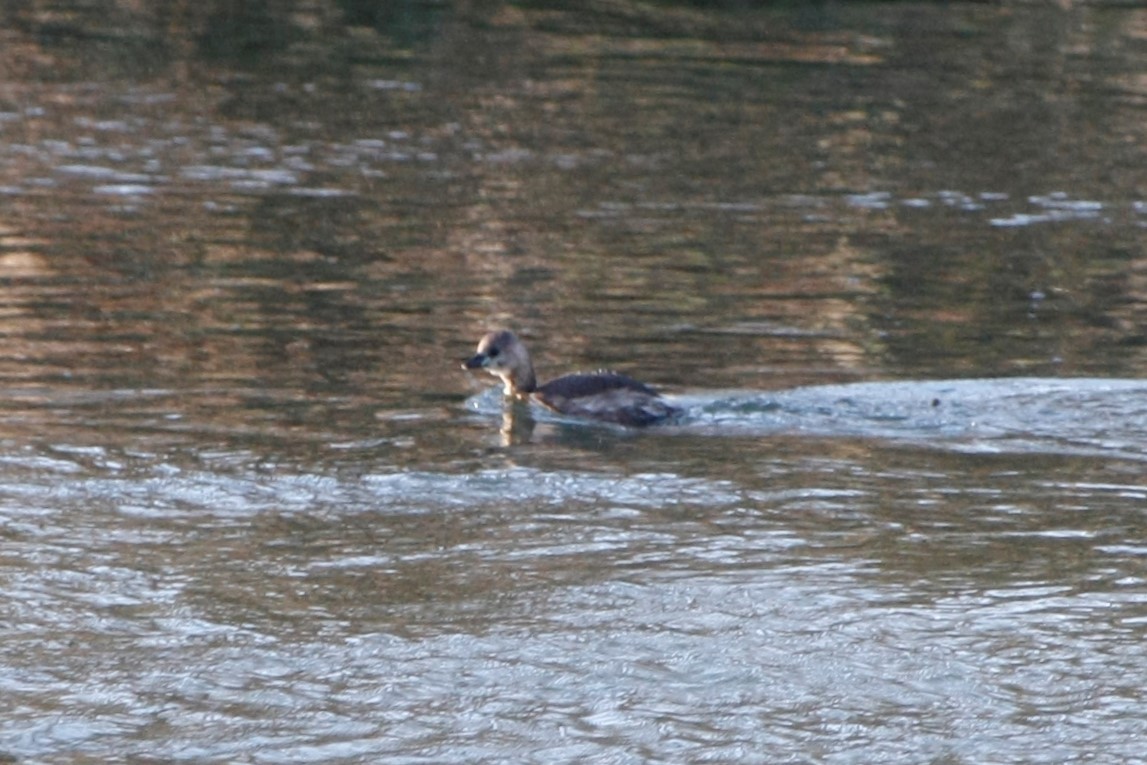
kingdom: Animalia
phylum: Chordata
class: Aves
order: Podicipediformes
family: Podicipedidae
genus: Tachybaptus
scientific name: Tachybaptus ruficollis
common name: Little grebe
